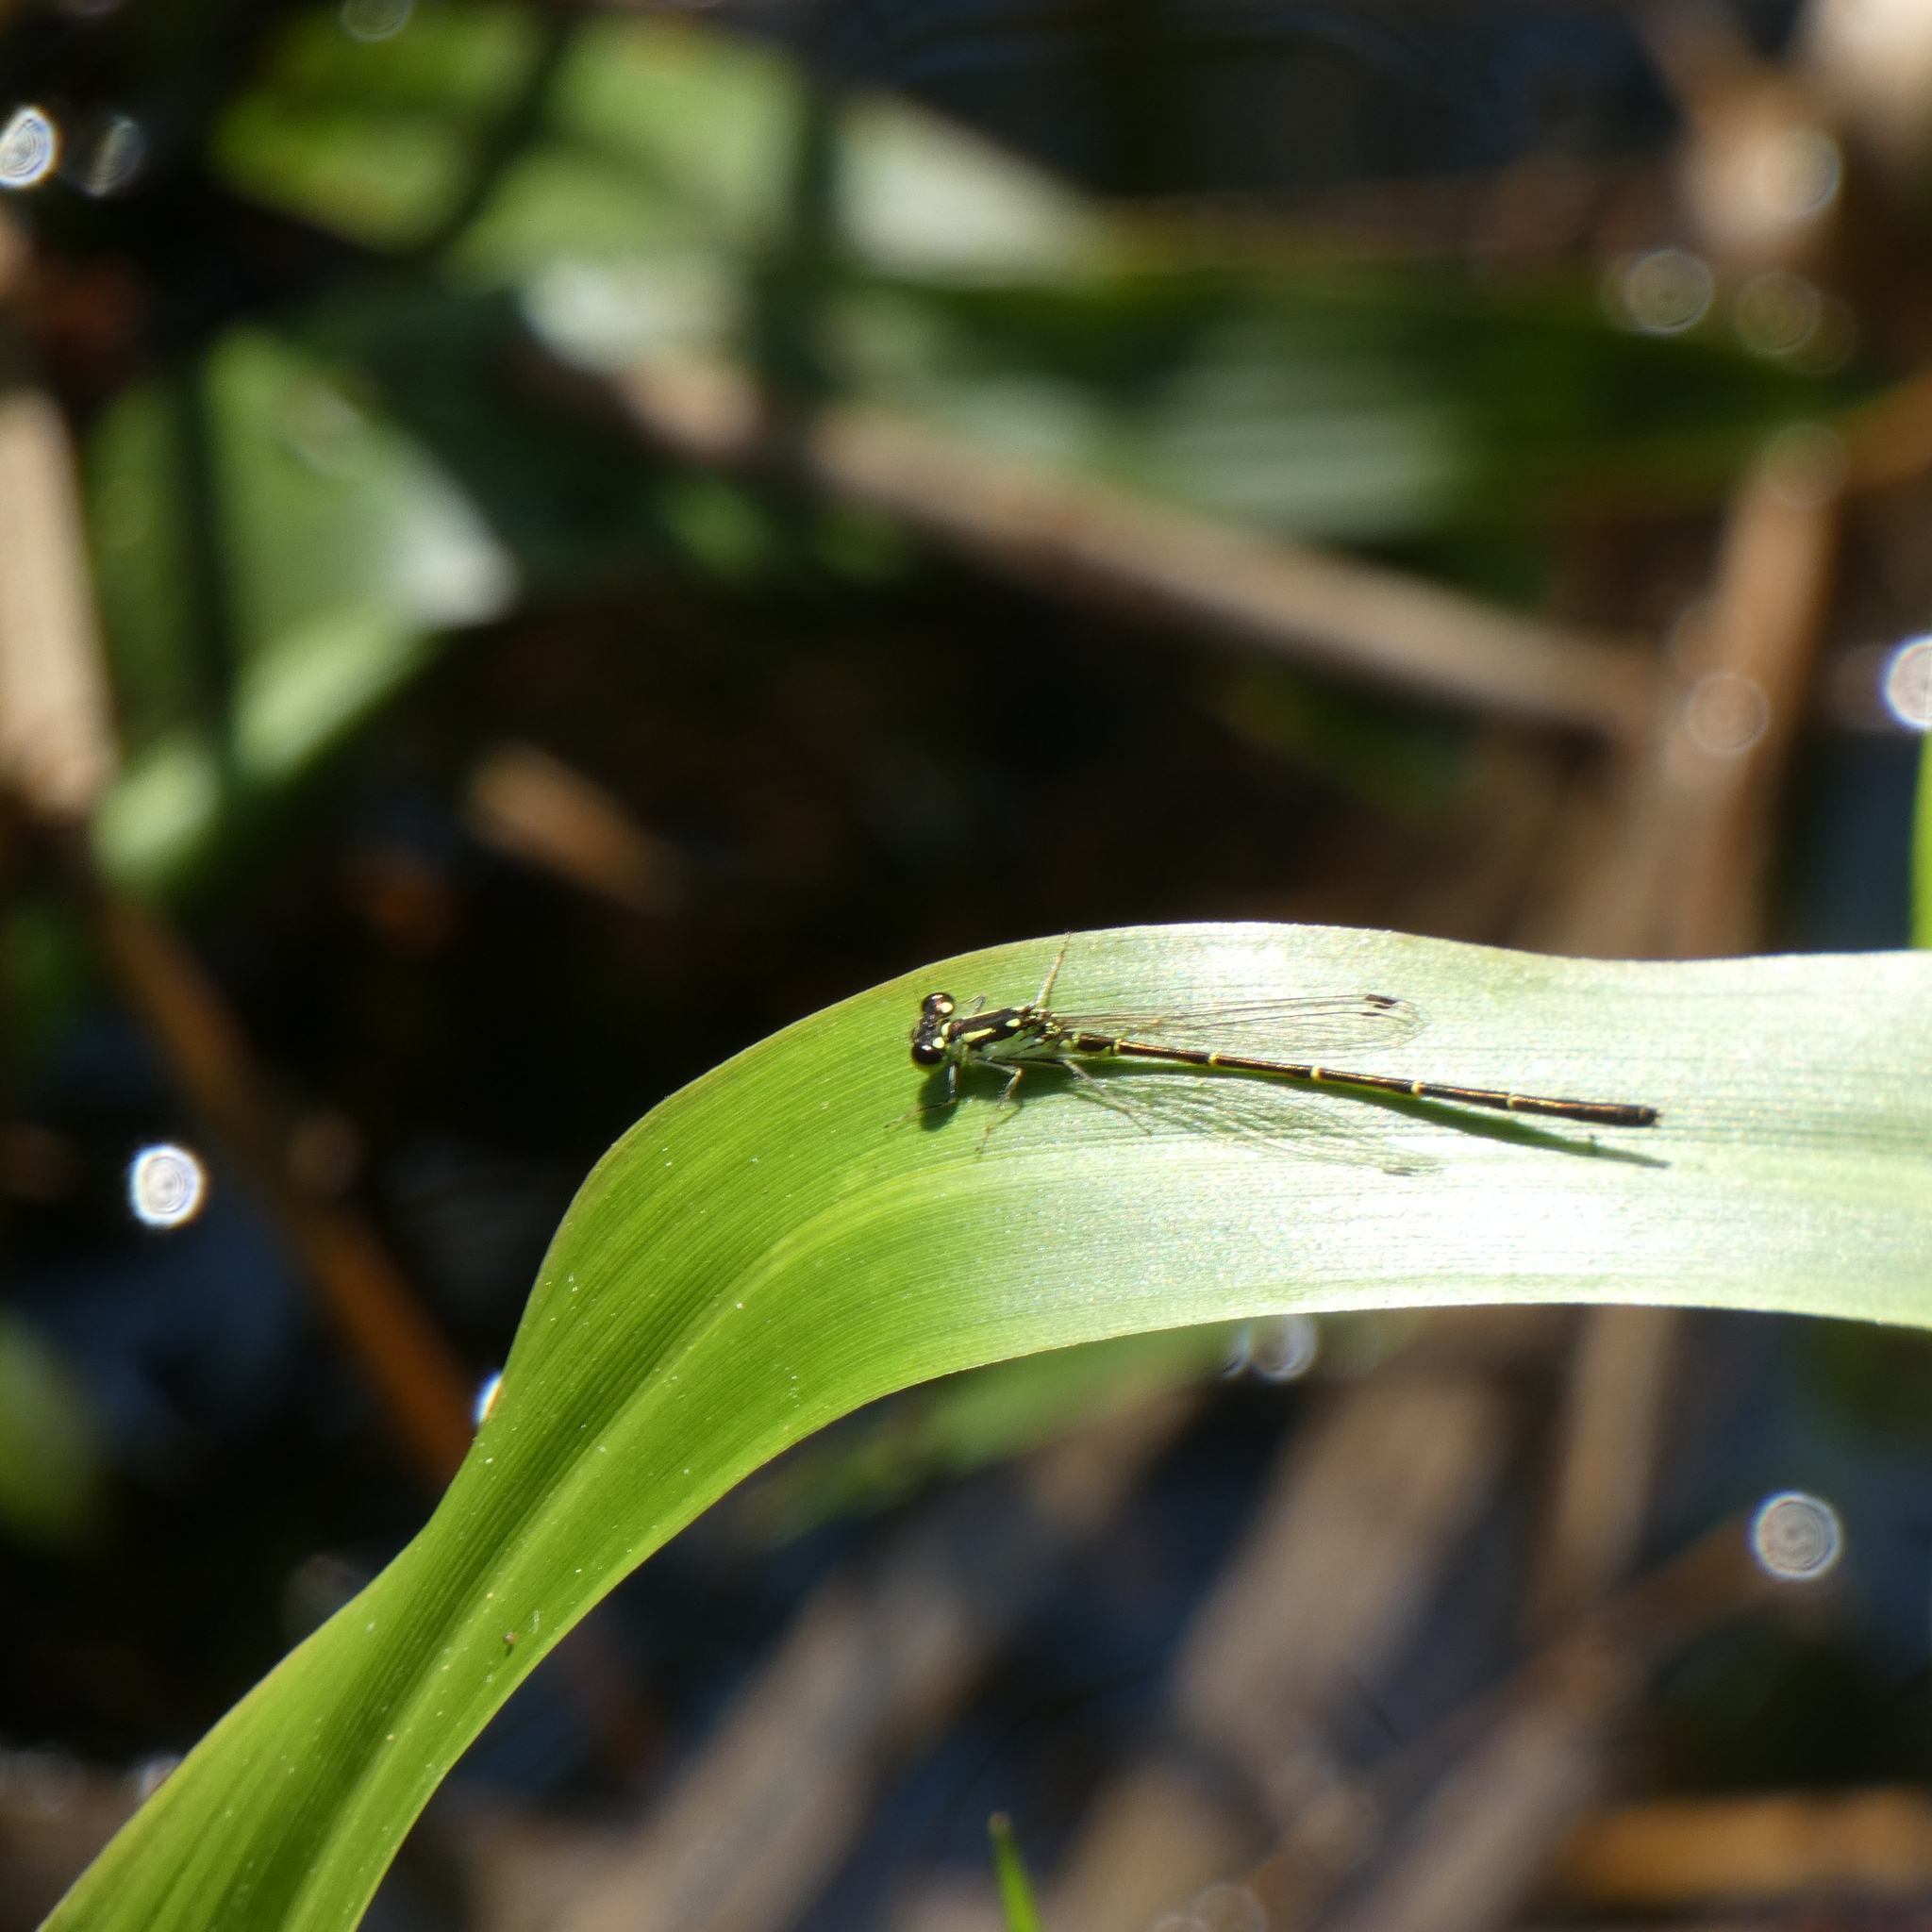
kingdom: Animalia
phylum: Arthropoda
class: Insecta
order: Odonata
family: Coenagrionidae
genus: Ischnura
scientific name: Ischnura posita
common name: Fragile forktail
